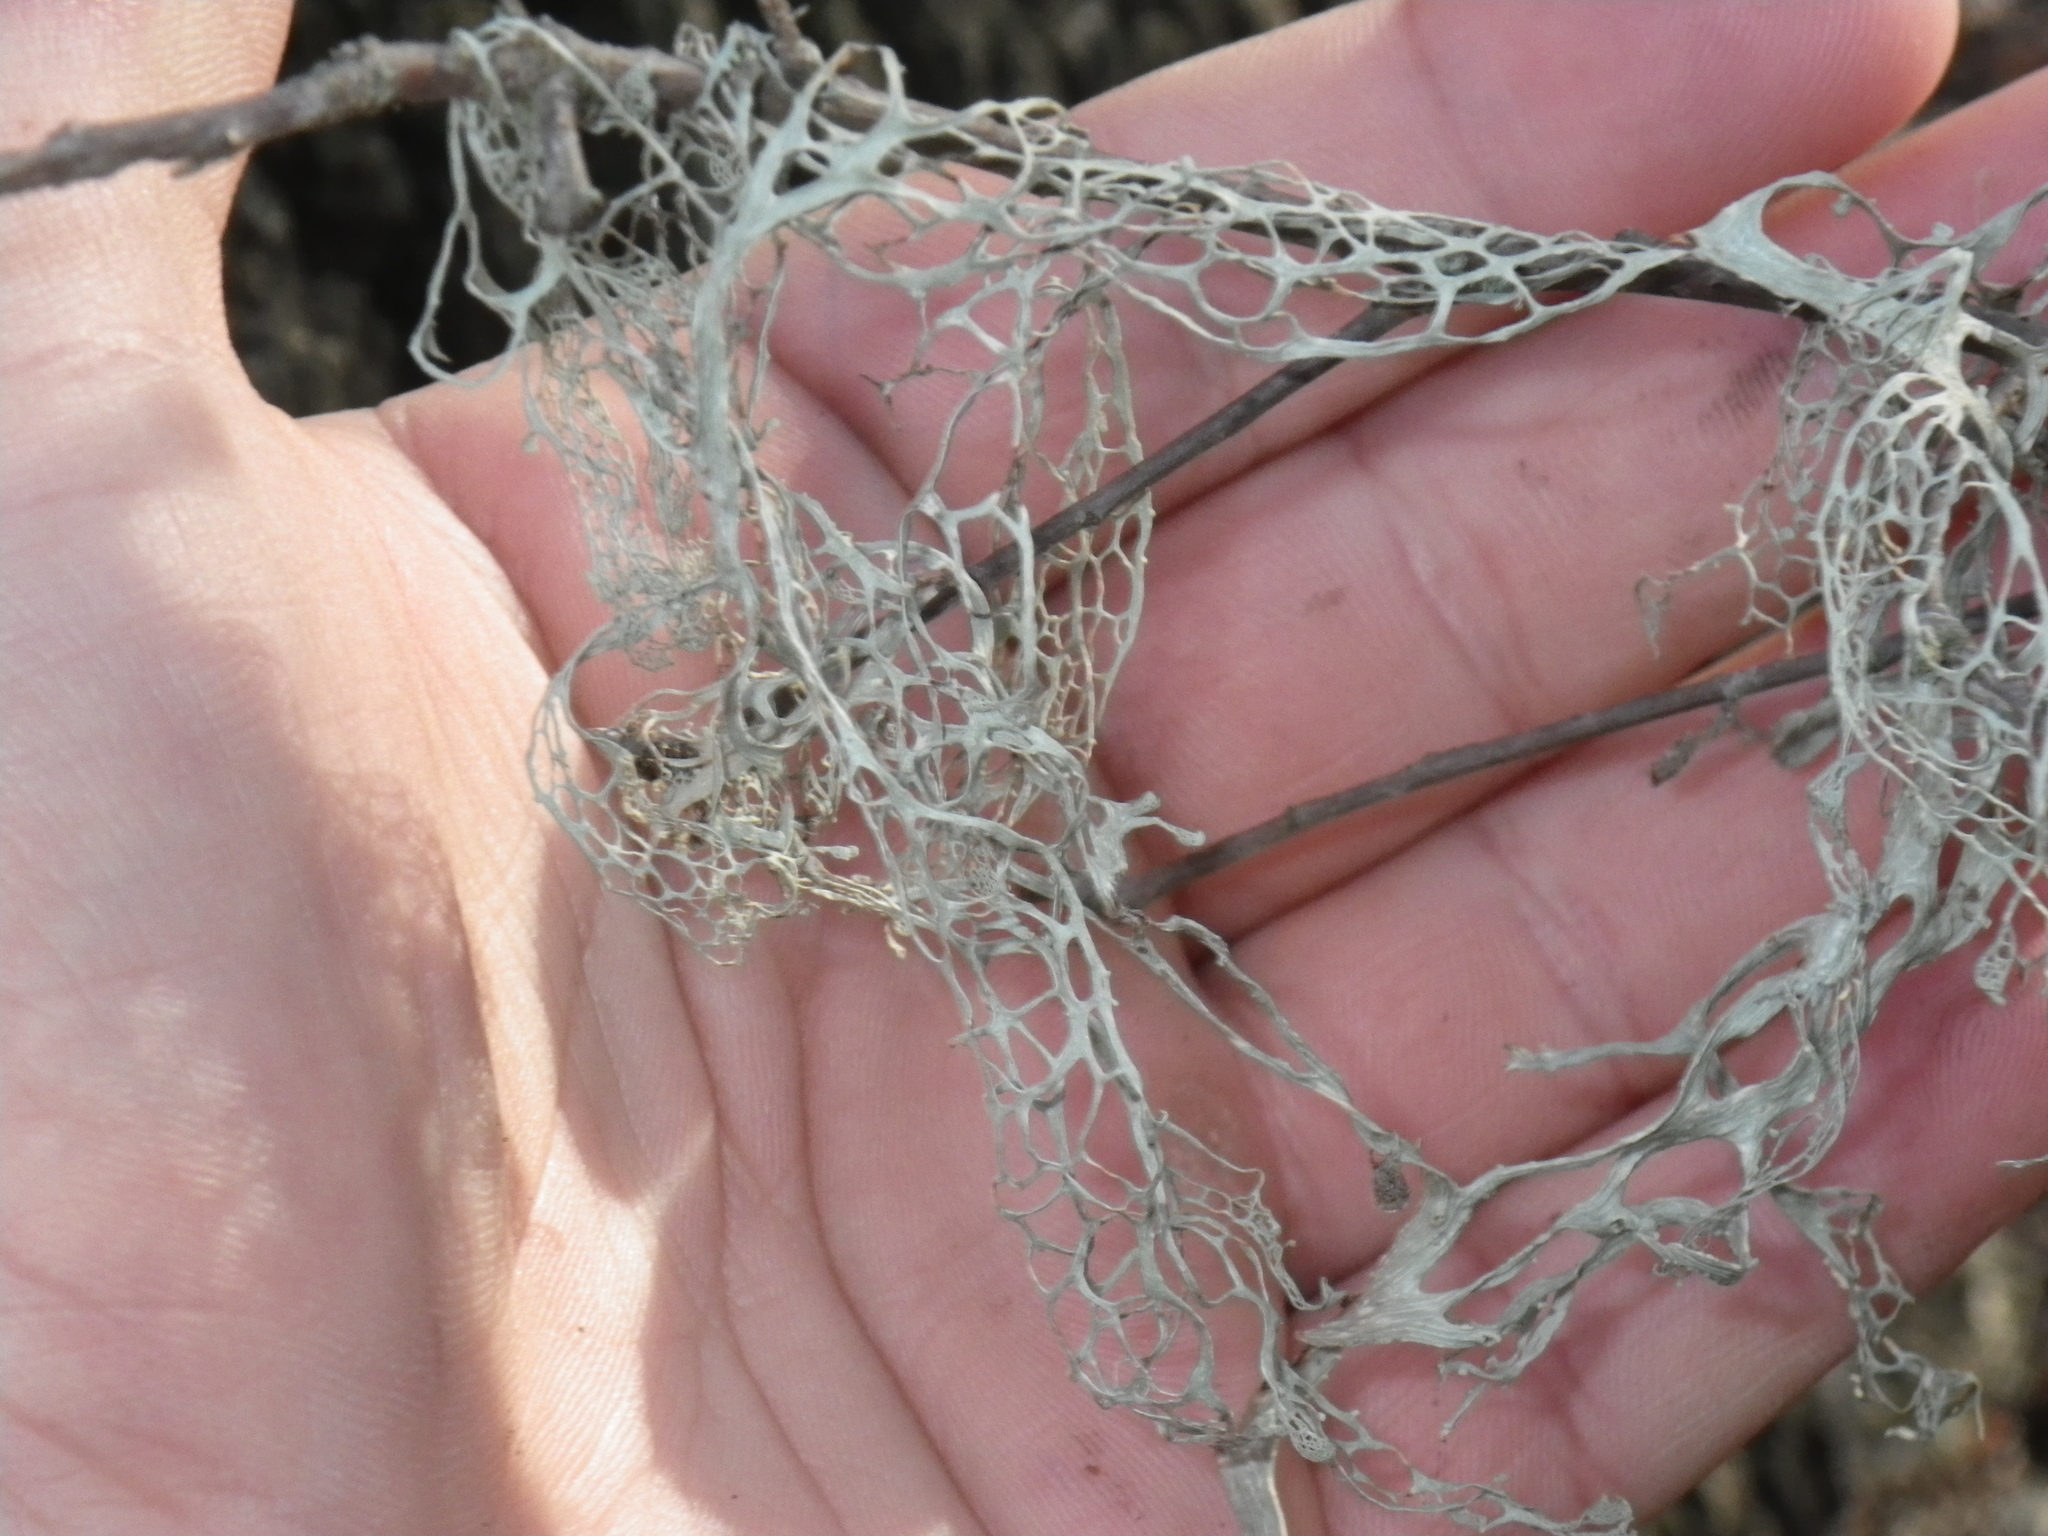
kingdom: Fungi
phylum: Ascomycota
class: Lecanoromycetes
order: Lecanorales
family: Ramalinaceae
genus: Ramalina
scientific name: Ramalina menziesii
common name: Lace lichen
